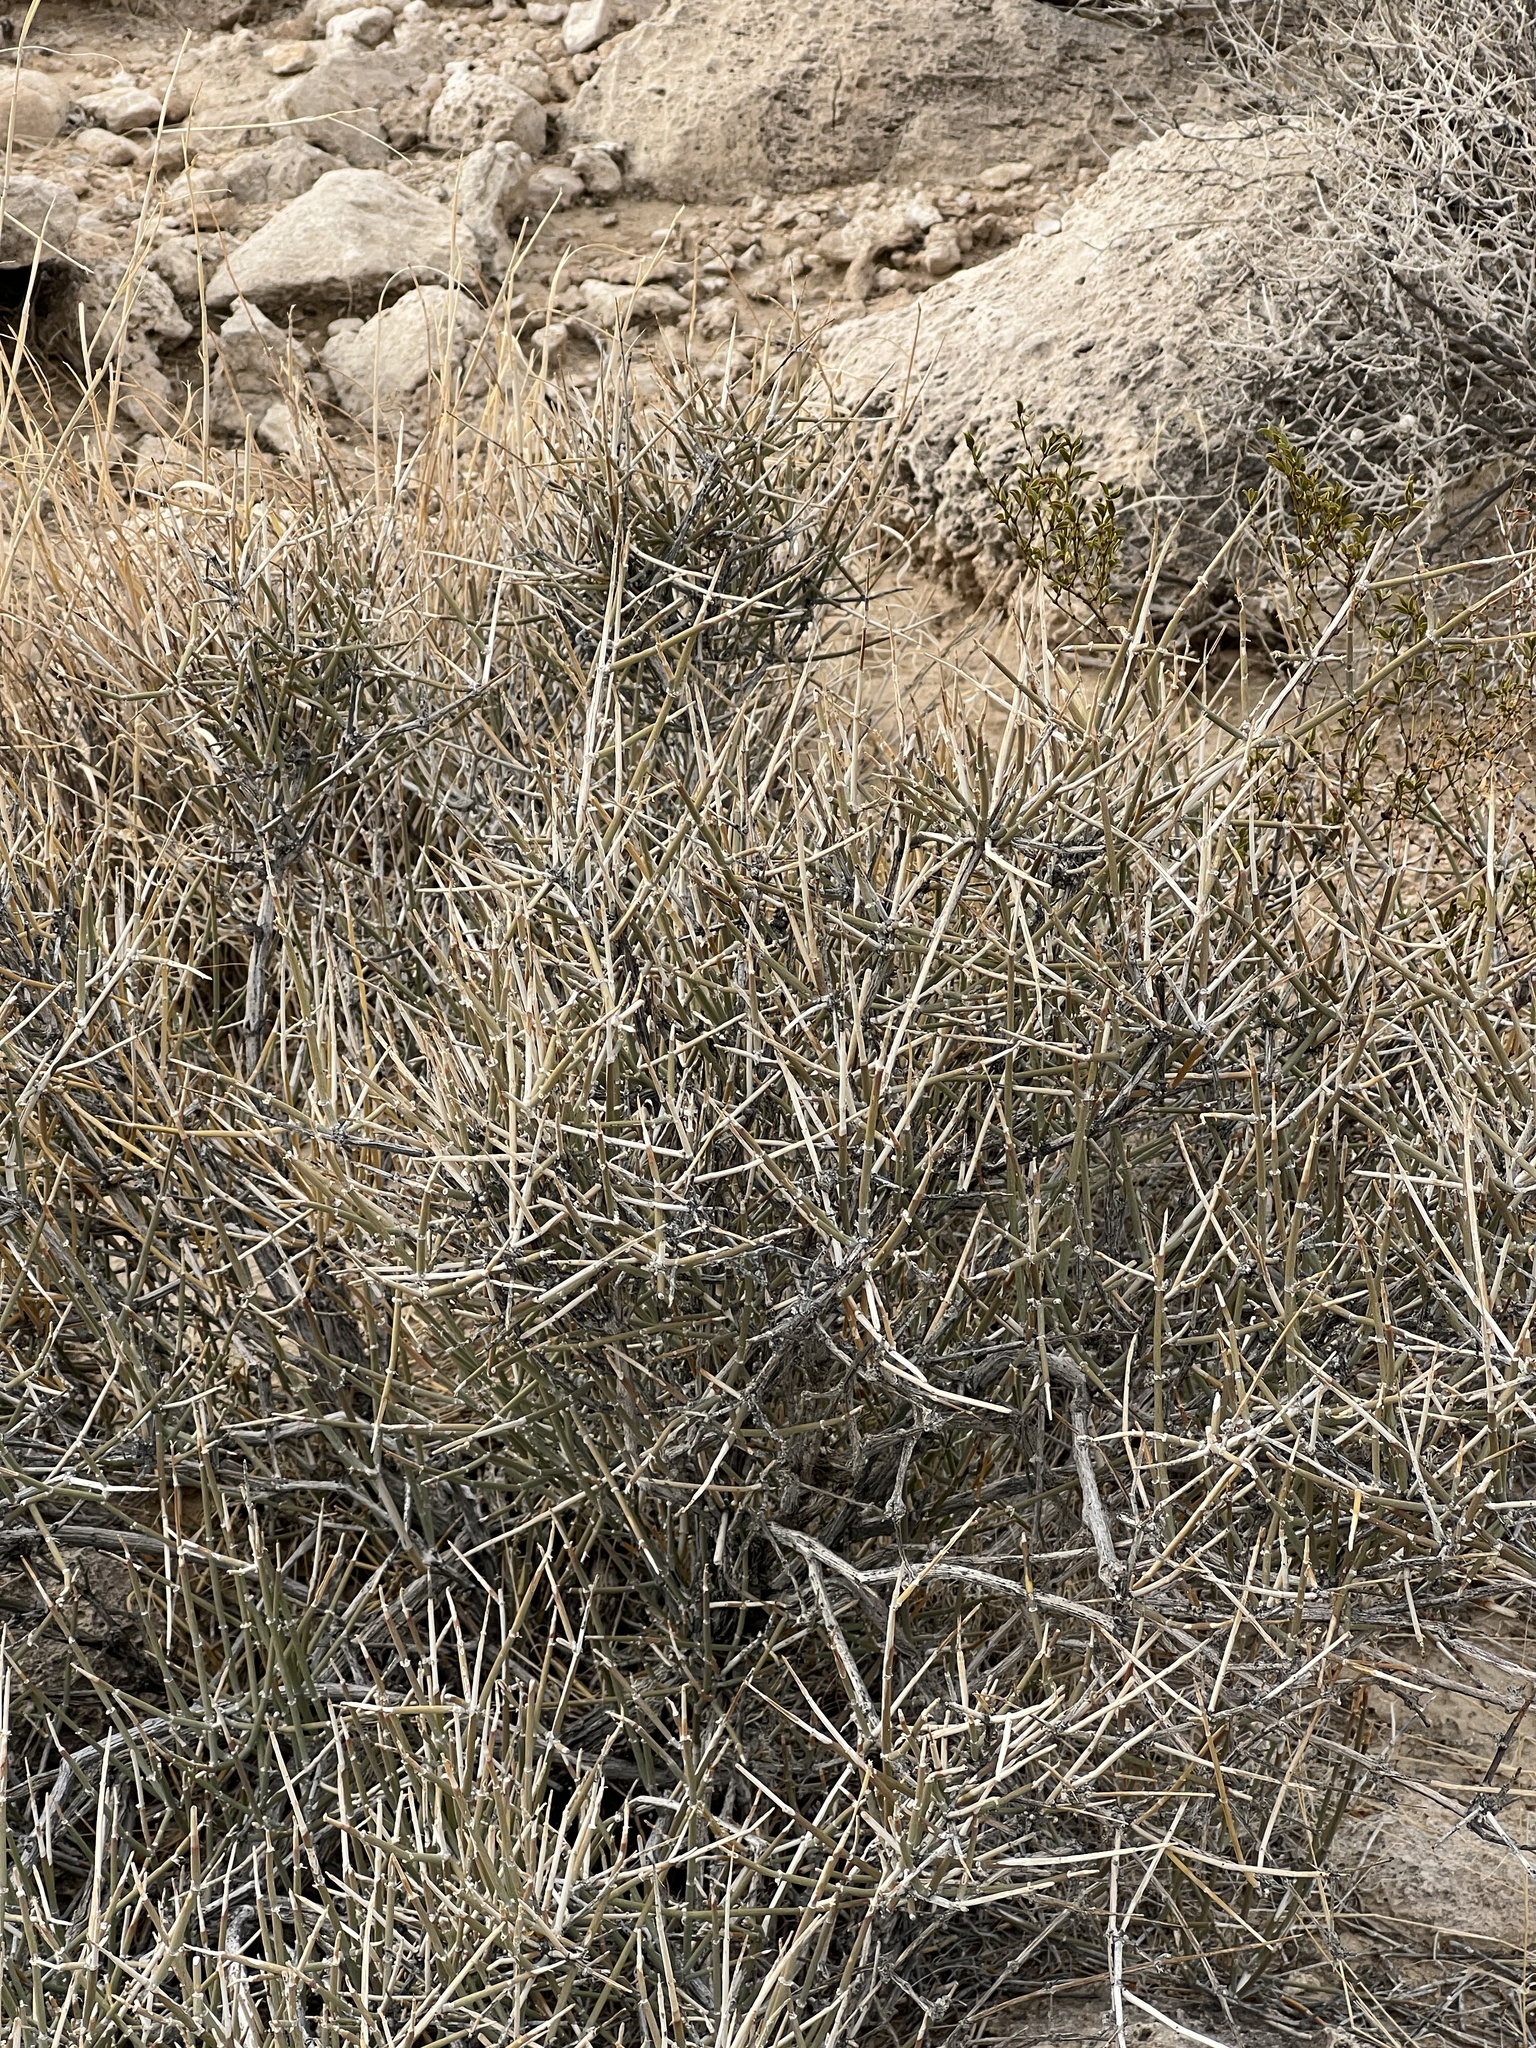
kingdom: Plantae
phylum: Tracheophyta
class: Gnetopsida
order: Ephedrales
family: Ephedraceae
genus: Ephedra
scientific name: Ephedra nevadensis
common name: Gray ephedra
